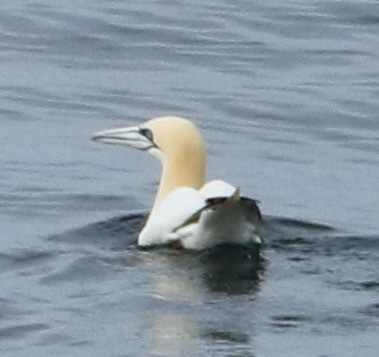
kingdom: Animalia
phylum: Chordata
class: Aves
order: Suliformes
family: Sulidae
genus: Morus
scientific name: Morus bassanus
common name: Northern gannet
